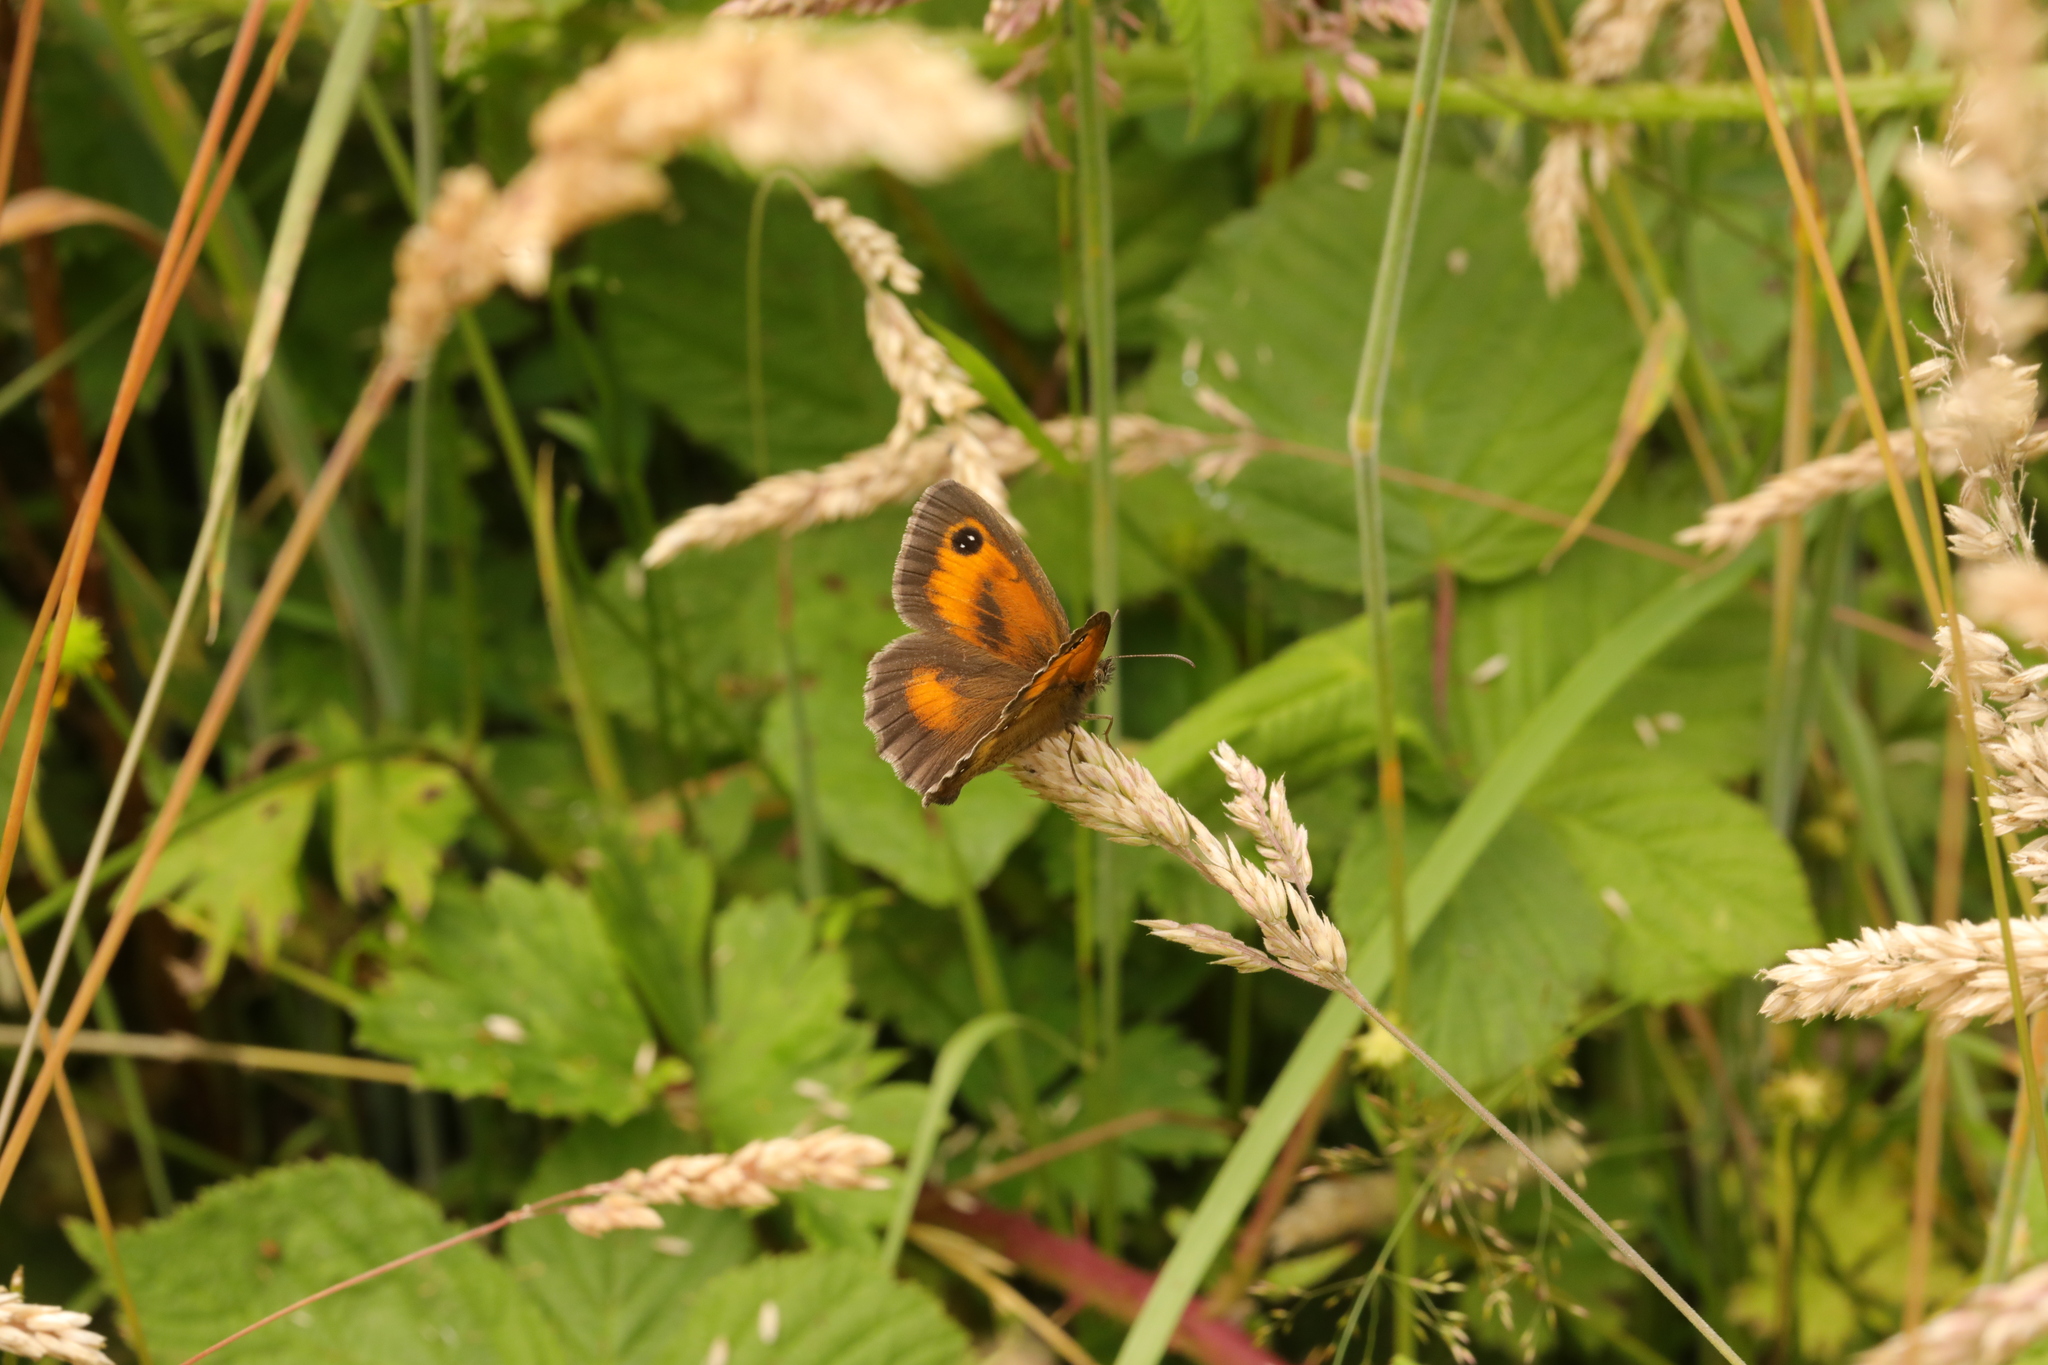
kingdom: Animalia
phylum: Arthropoda
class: Insecta
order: Lepidoptera
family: Nymphalidae
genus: Pyronia
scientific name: Pyronia tithonus
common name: Gatekeeper
